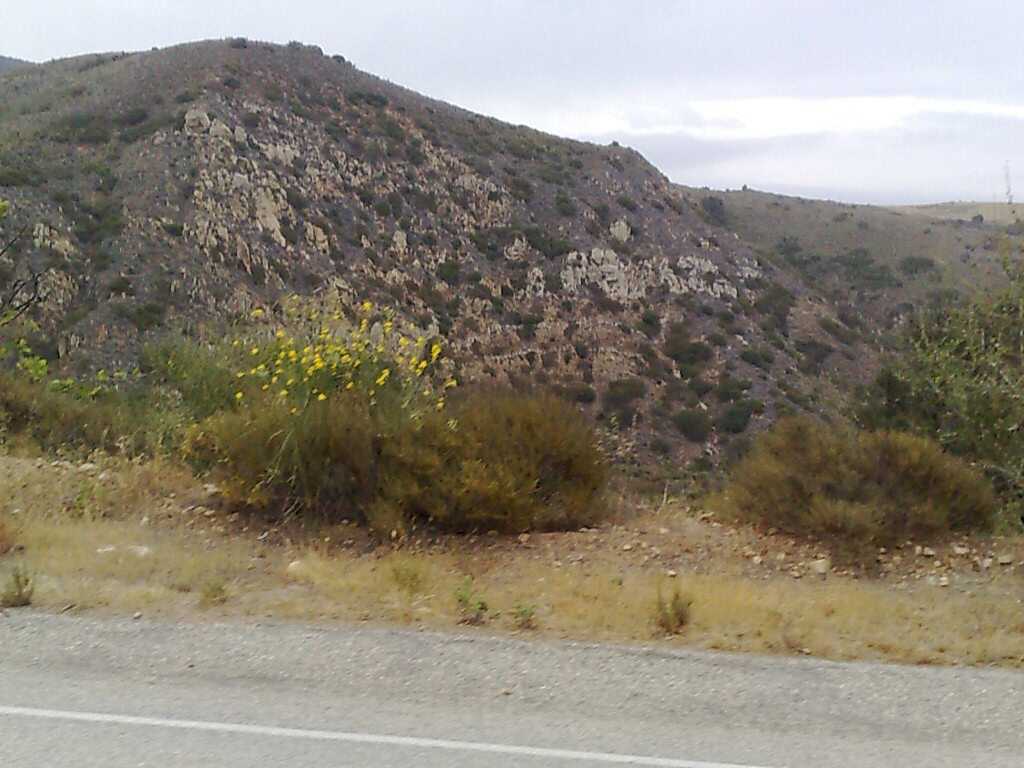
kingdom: Plantae
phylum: Tracheophyta
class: Magnoliopsida
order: Fabales
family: Fabaceae
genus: Spartium
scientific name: Spartium junceum
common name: Spanish broom
